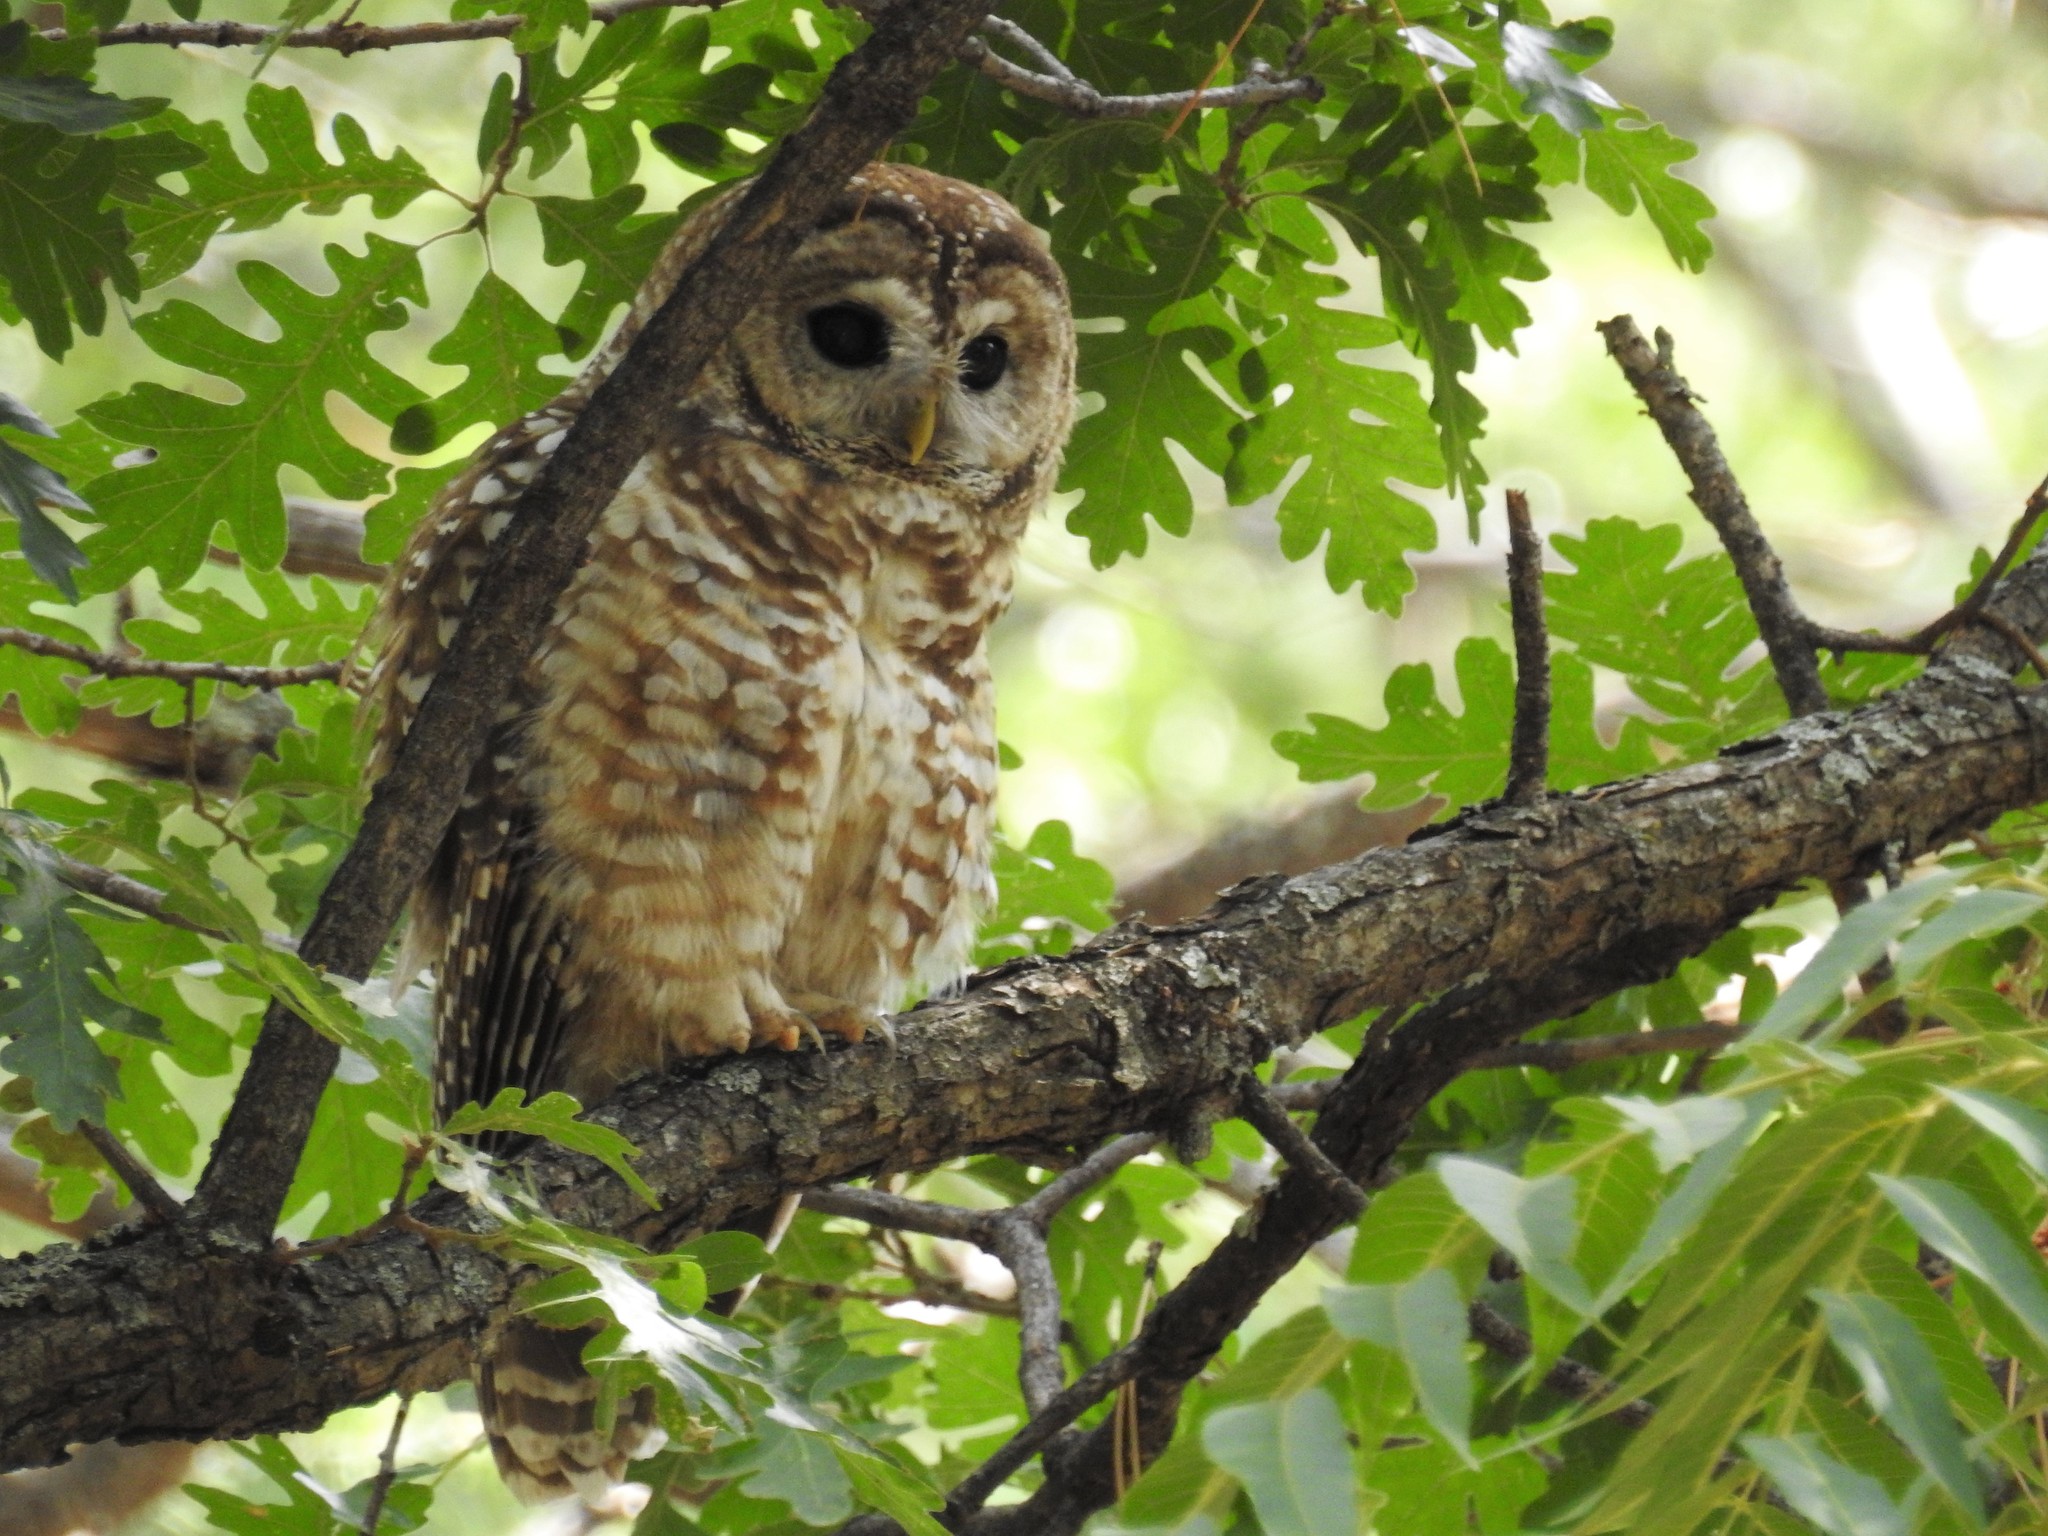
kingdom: Animalia
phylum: Chordata
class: Aves
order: Strigiformes
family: Strigidae
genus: Strix
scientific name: Strix occidentalis
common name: Spotted owl
